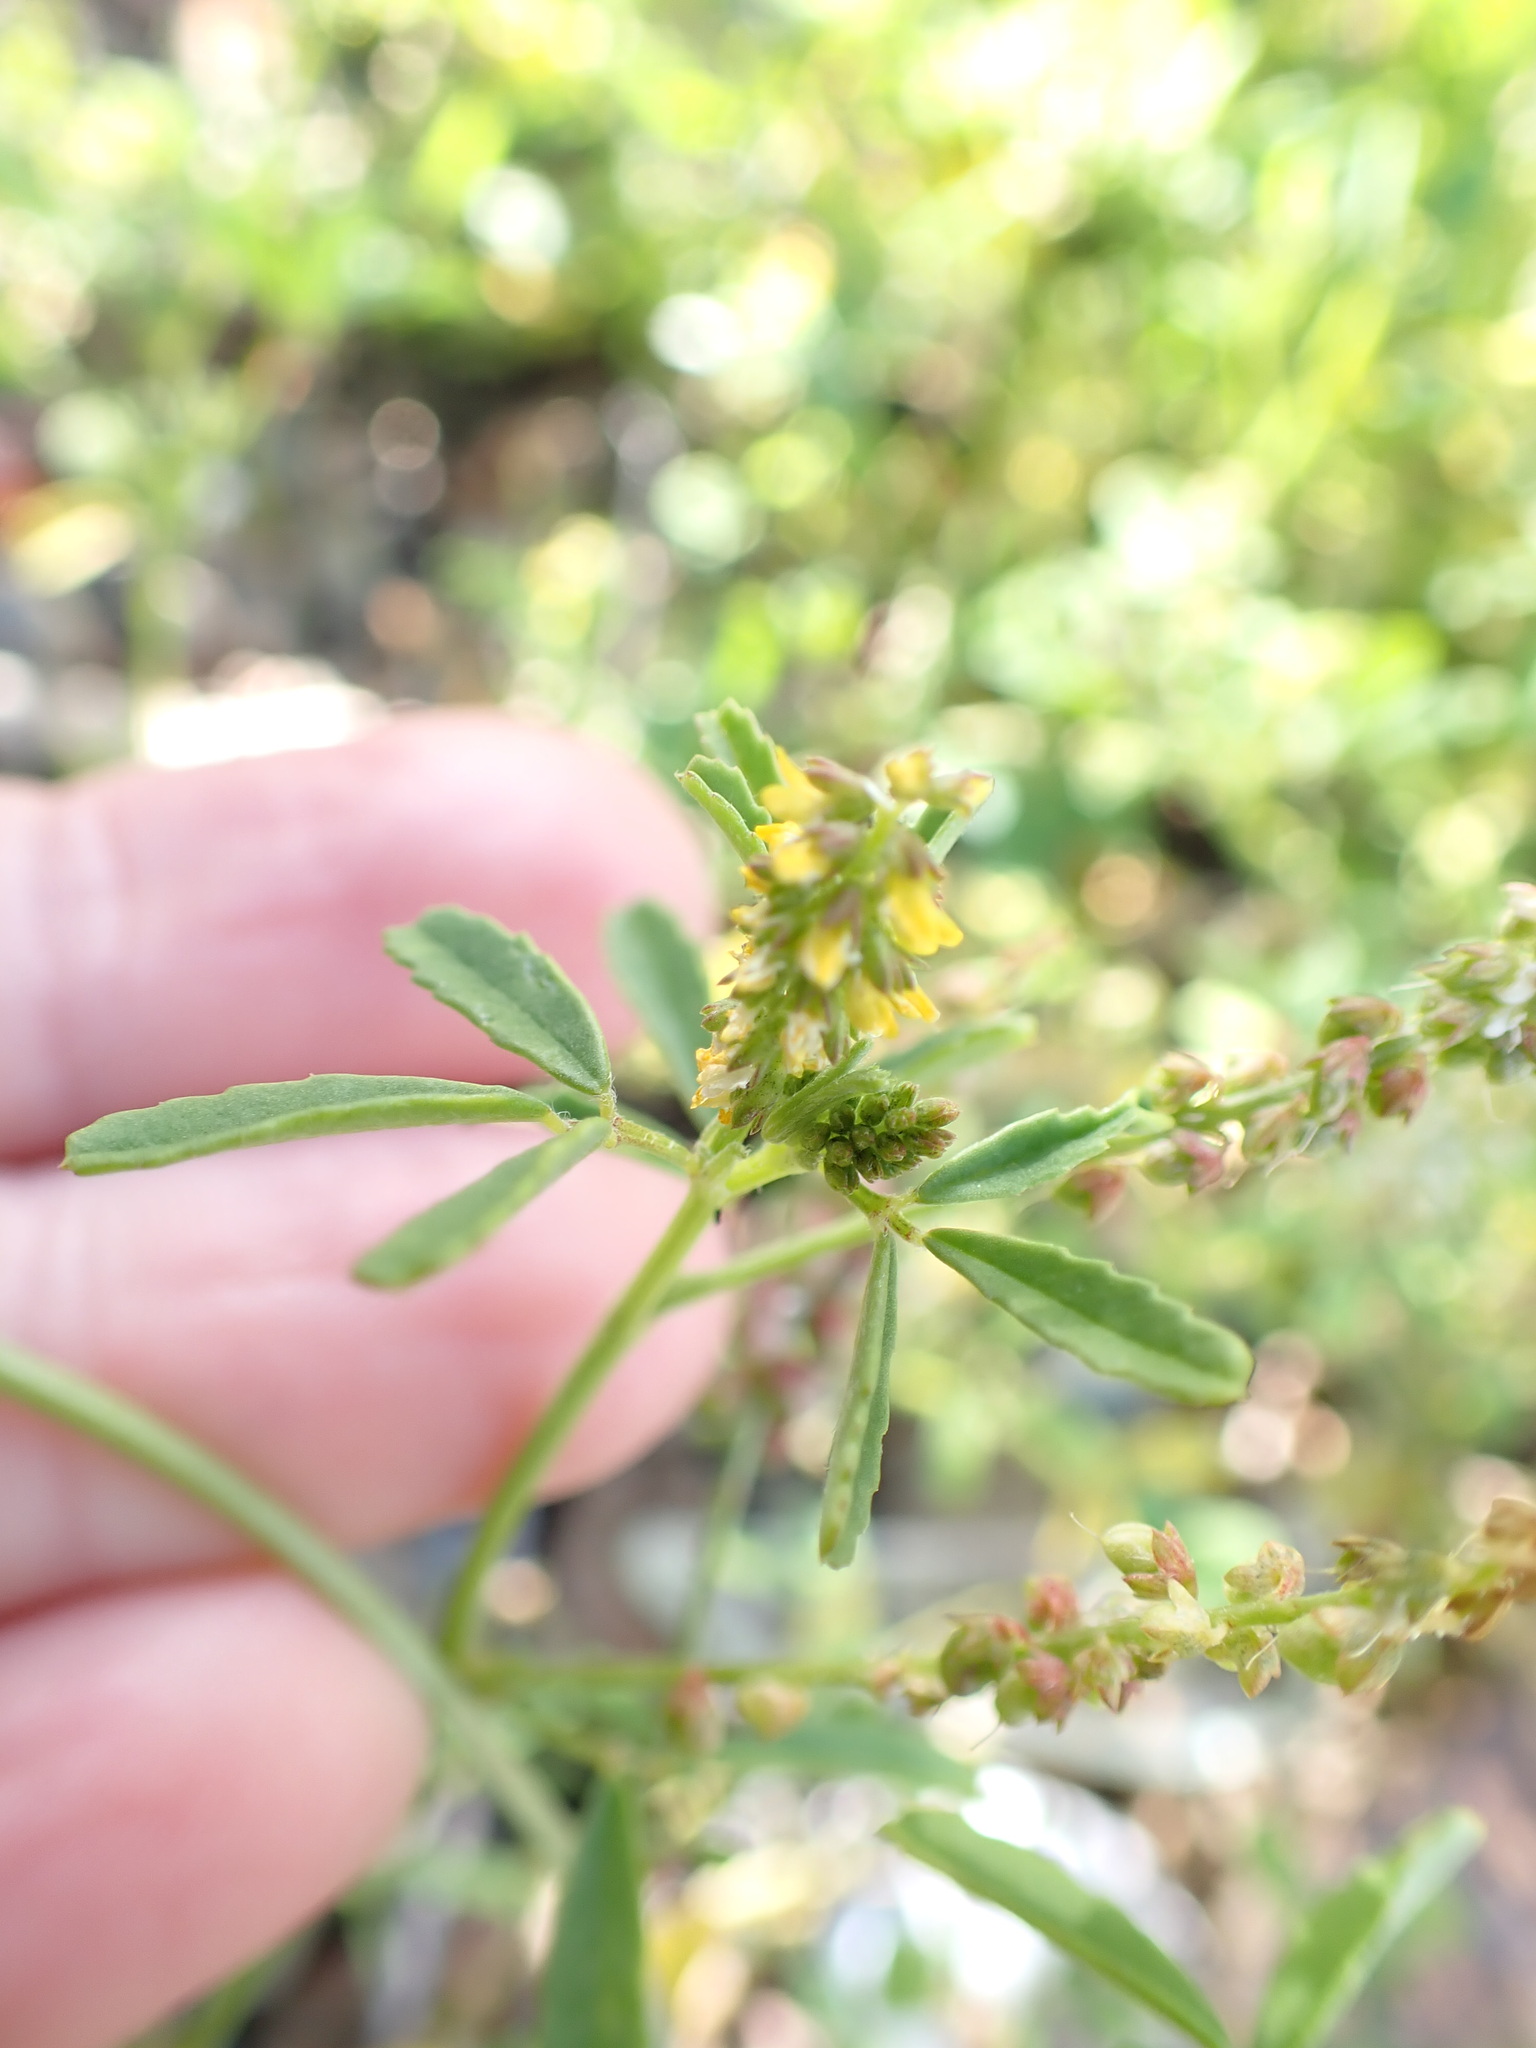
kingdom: Plantae
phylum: Tracheophyta
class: Magnoliopsida
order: Fabales
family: Fabaceae
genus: Melilotus
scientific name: Melilotus indicus
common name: Small melilot
